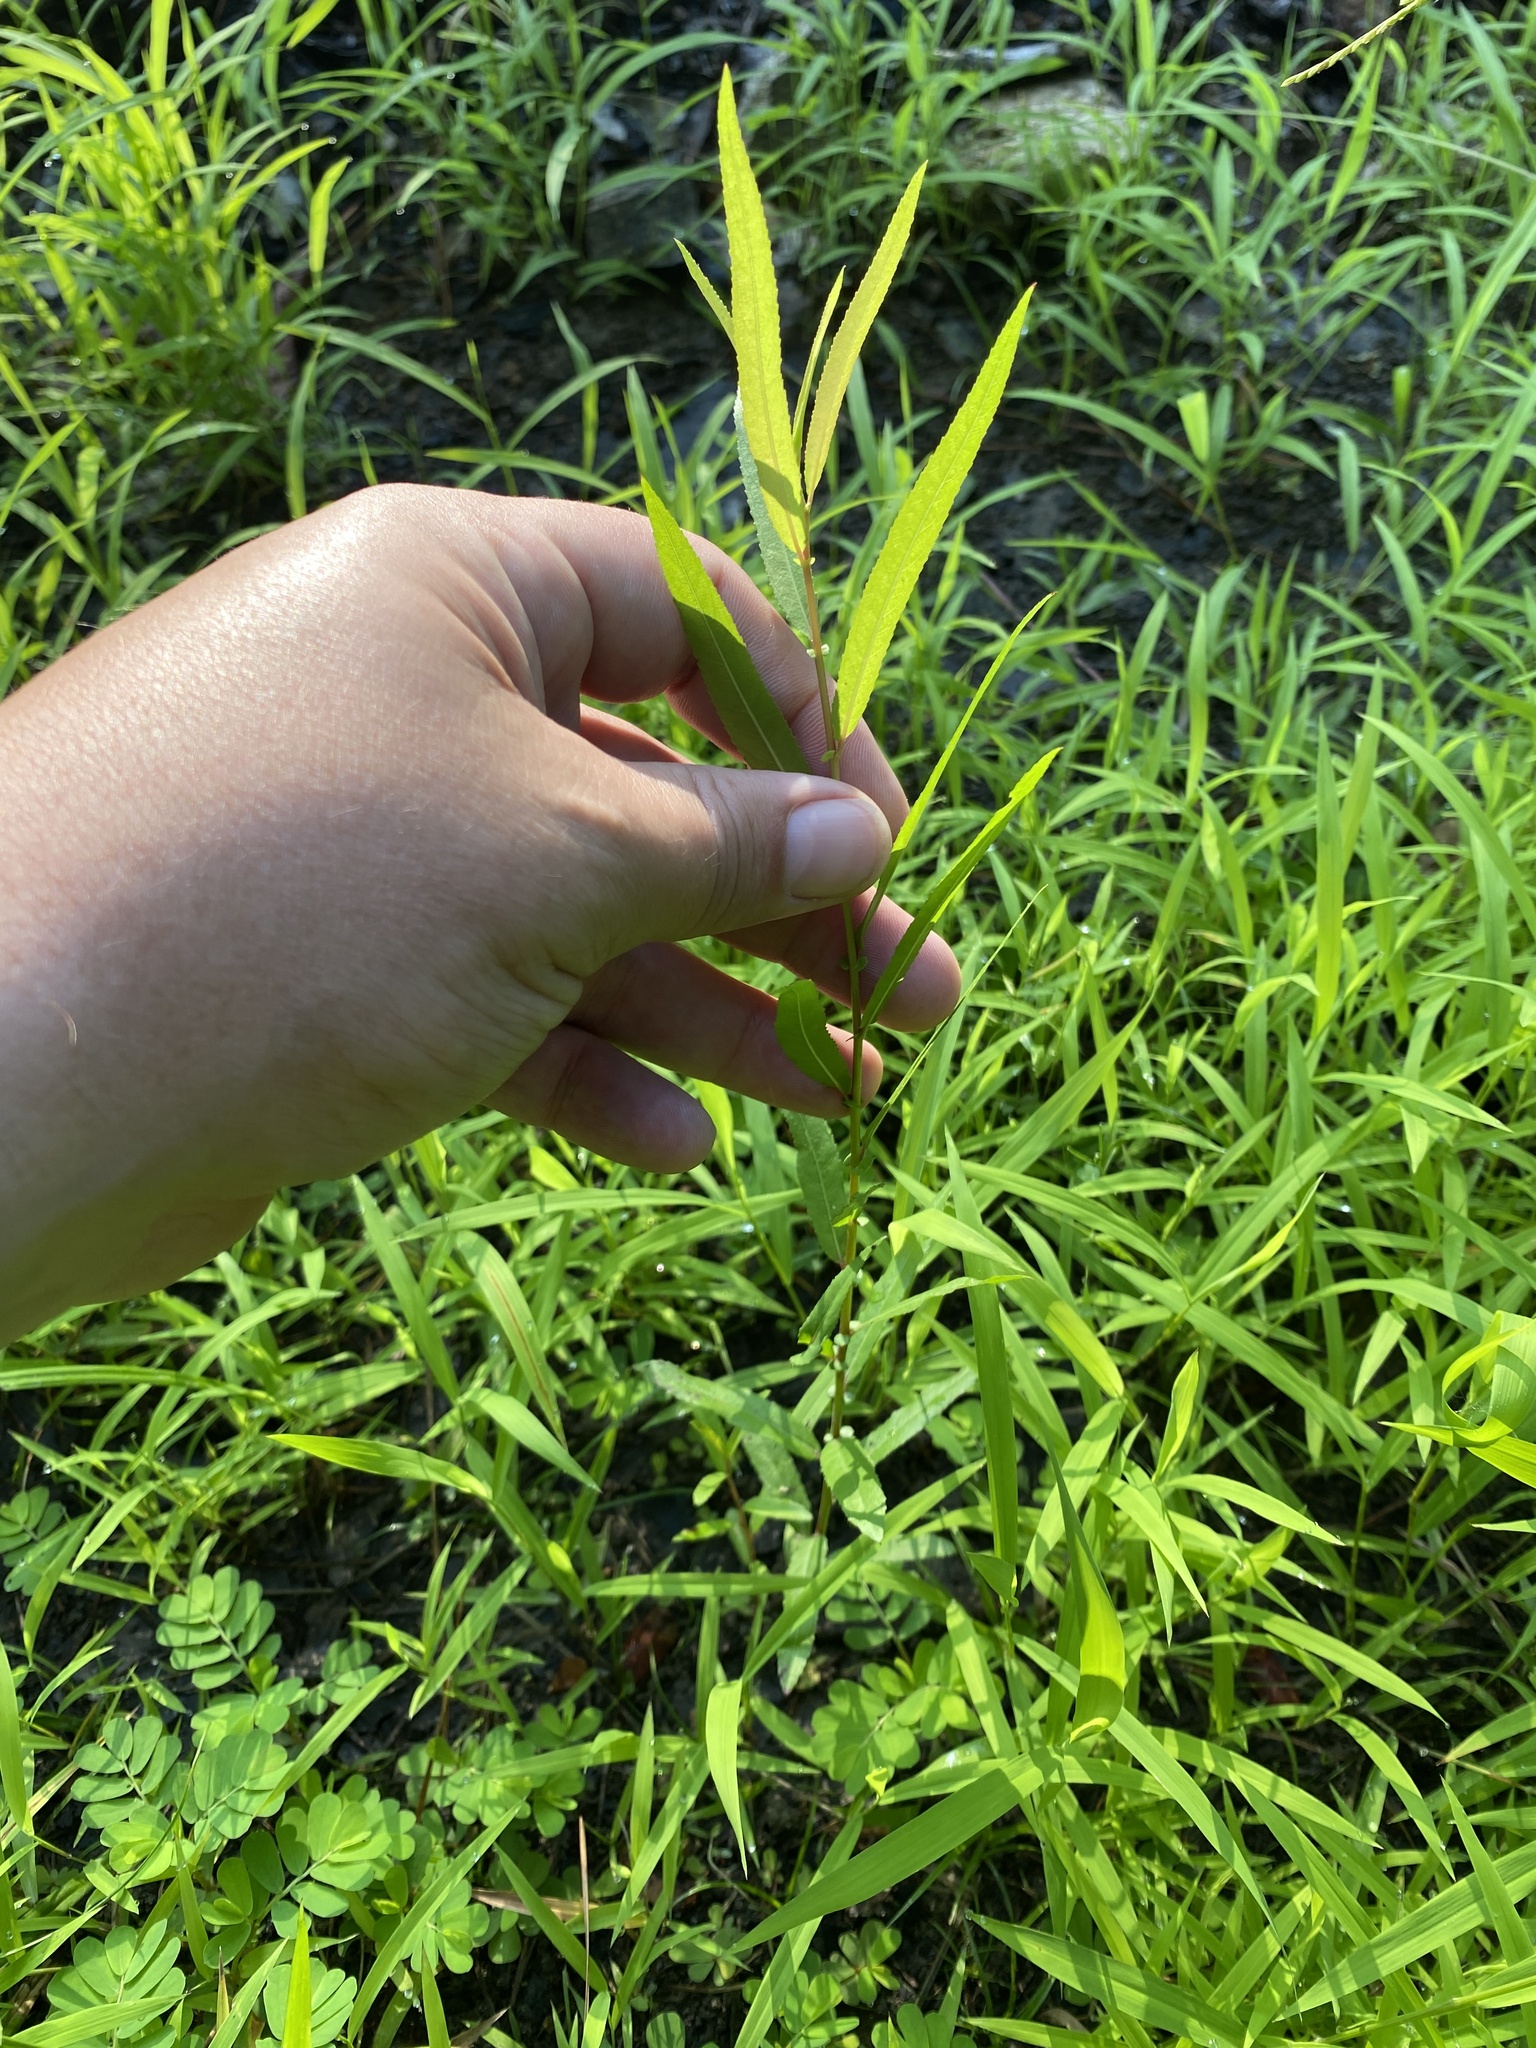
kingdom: Plantae
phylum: Tracheophyta
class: Magnoliopsida
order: Malpighiales
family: Salicaceae
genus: Salix
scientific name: Salix nigra
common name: Black willow
